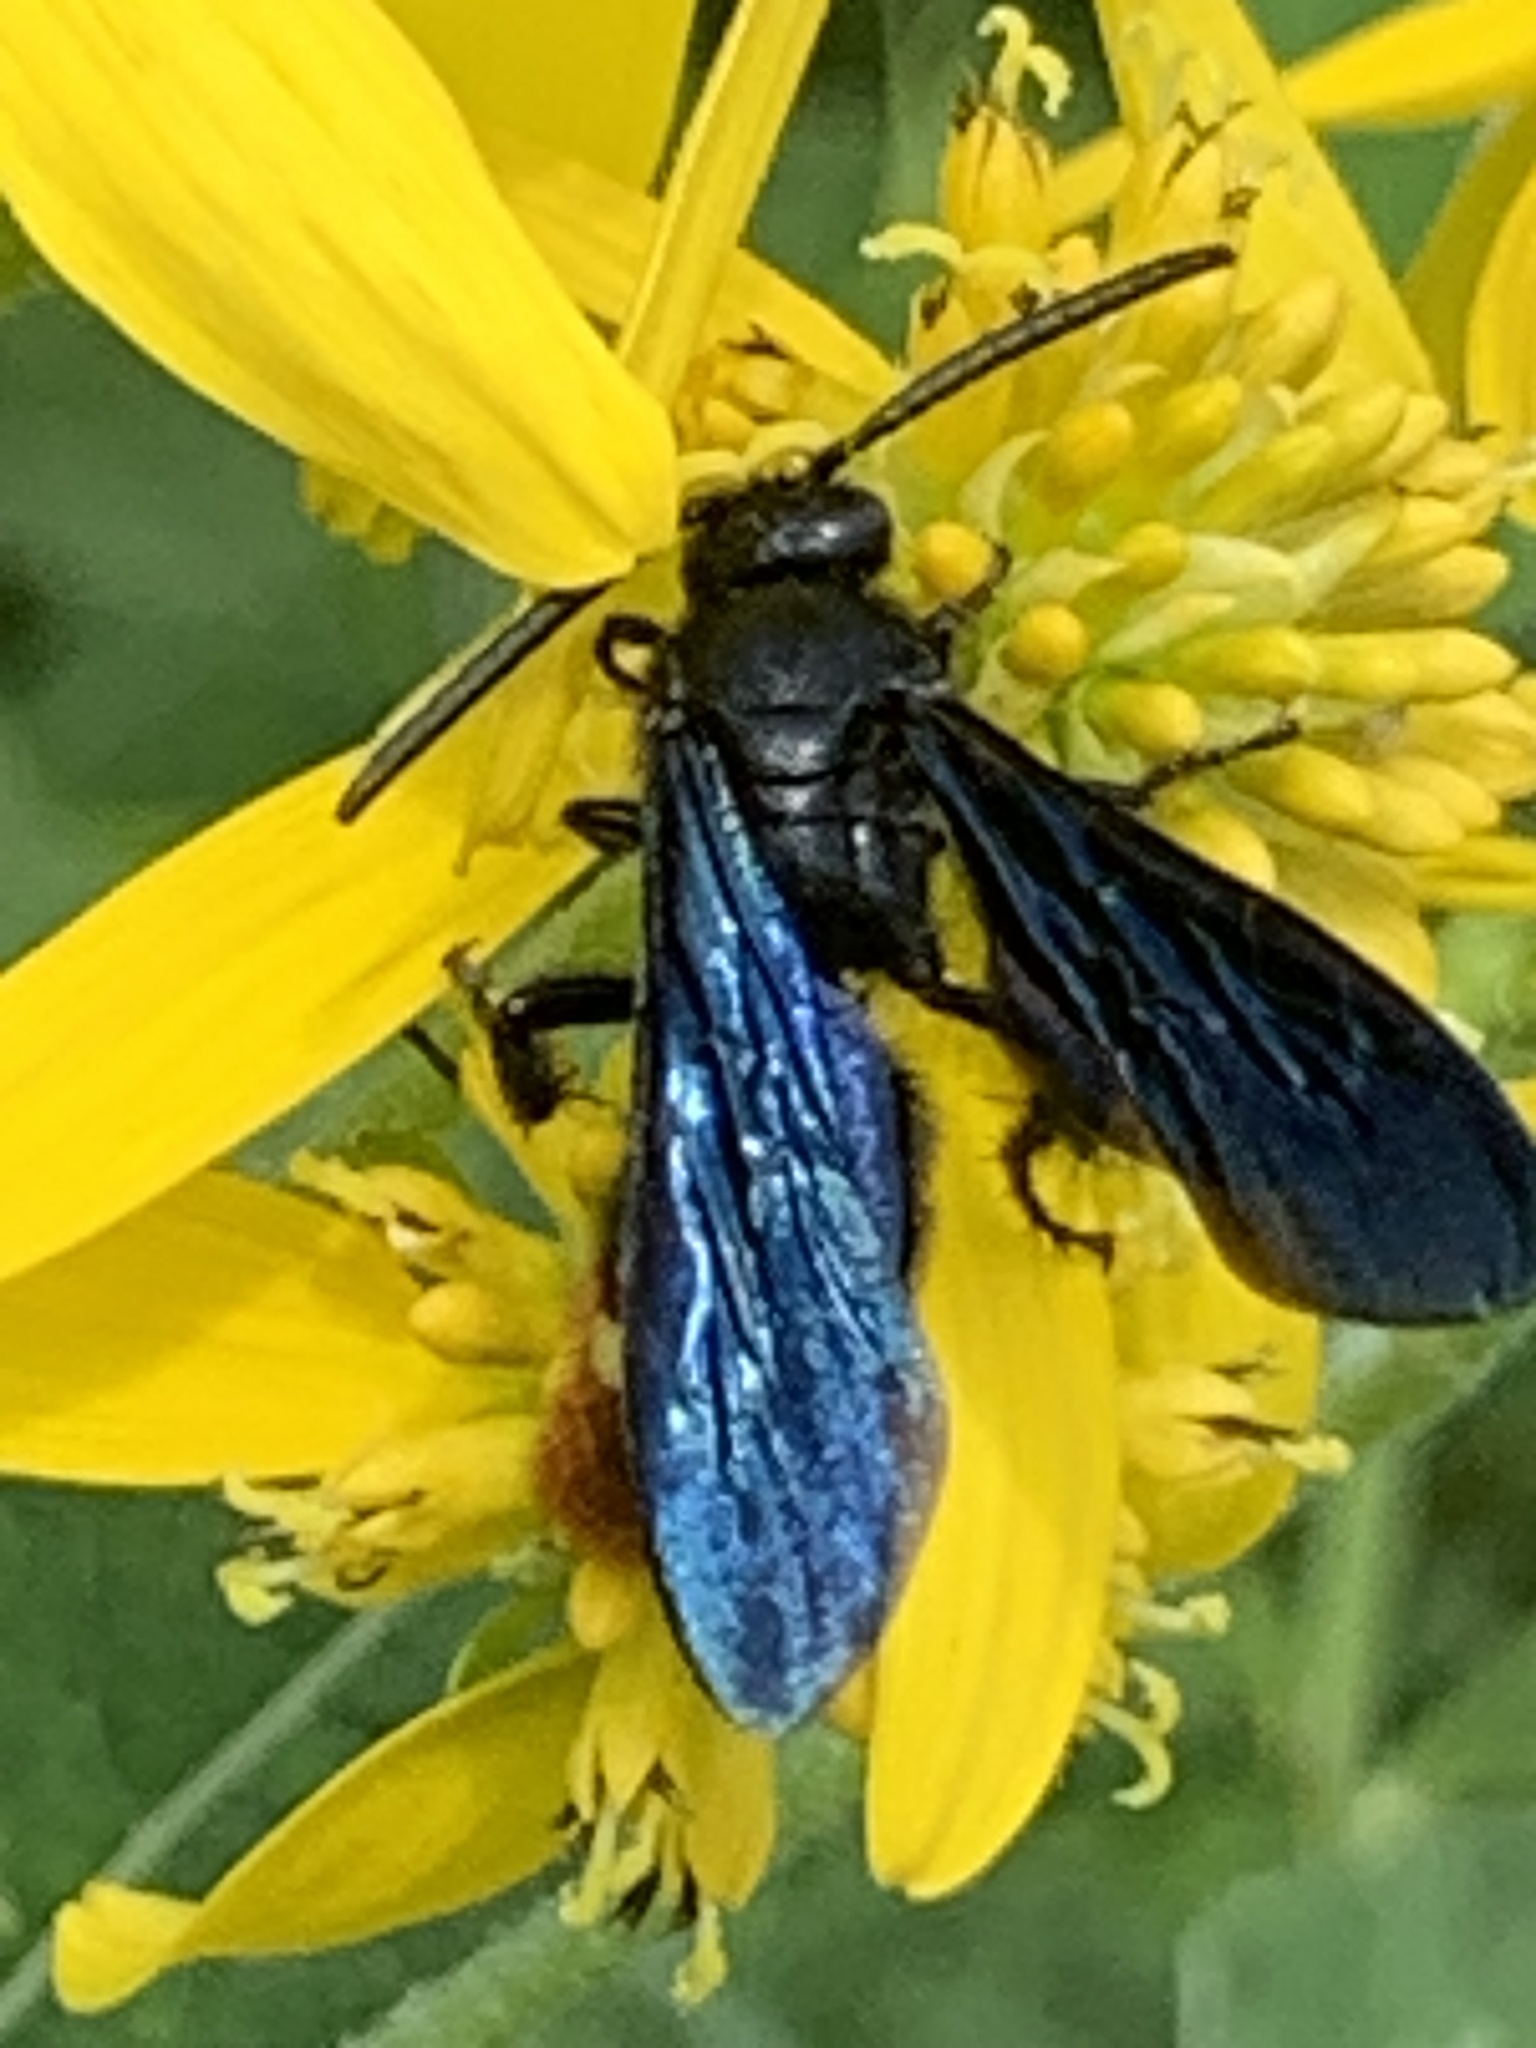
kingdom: Animalia
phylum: Arthropoda
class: Insecta
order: Hymenoptera
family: Scoliidae
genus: Scolia
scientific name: Scolia dubia
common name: Blue-winged scoliid wasp
